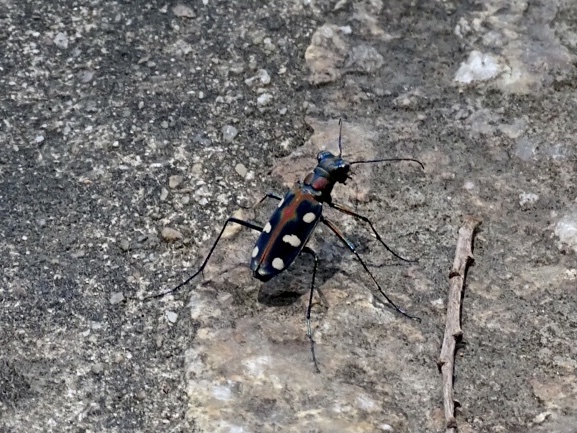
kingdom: Animalia
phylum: Arthropoda
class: Insecta
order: Coleoptera
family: Carabidae
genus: Cicindela
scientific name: Cicindela juxtata
